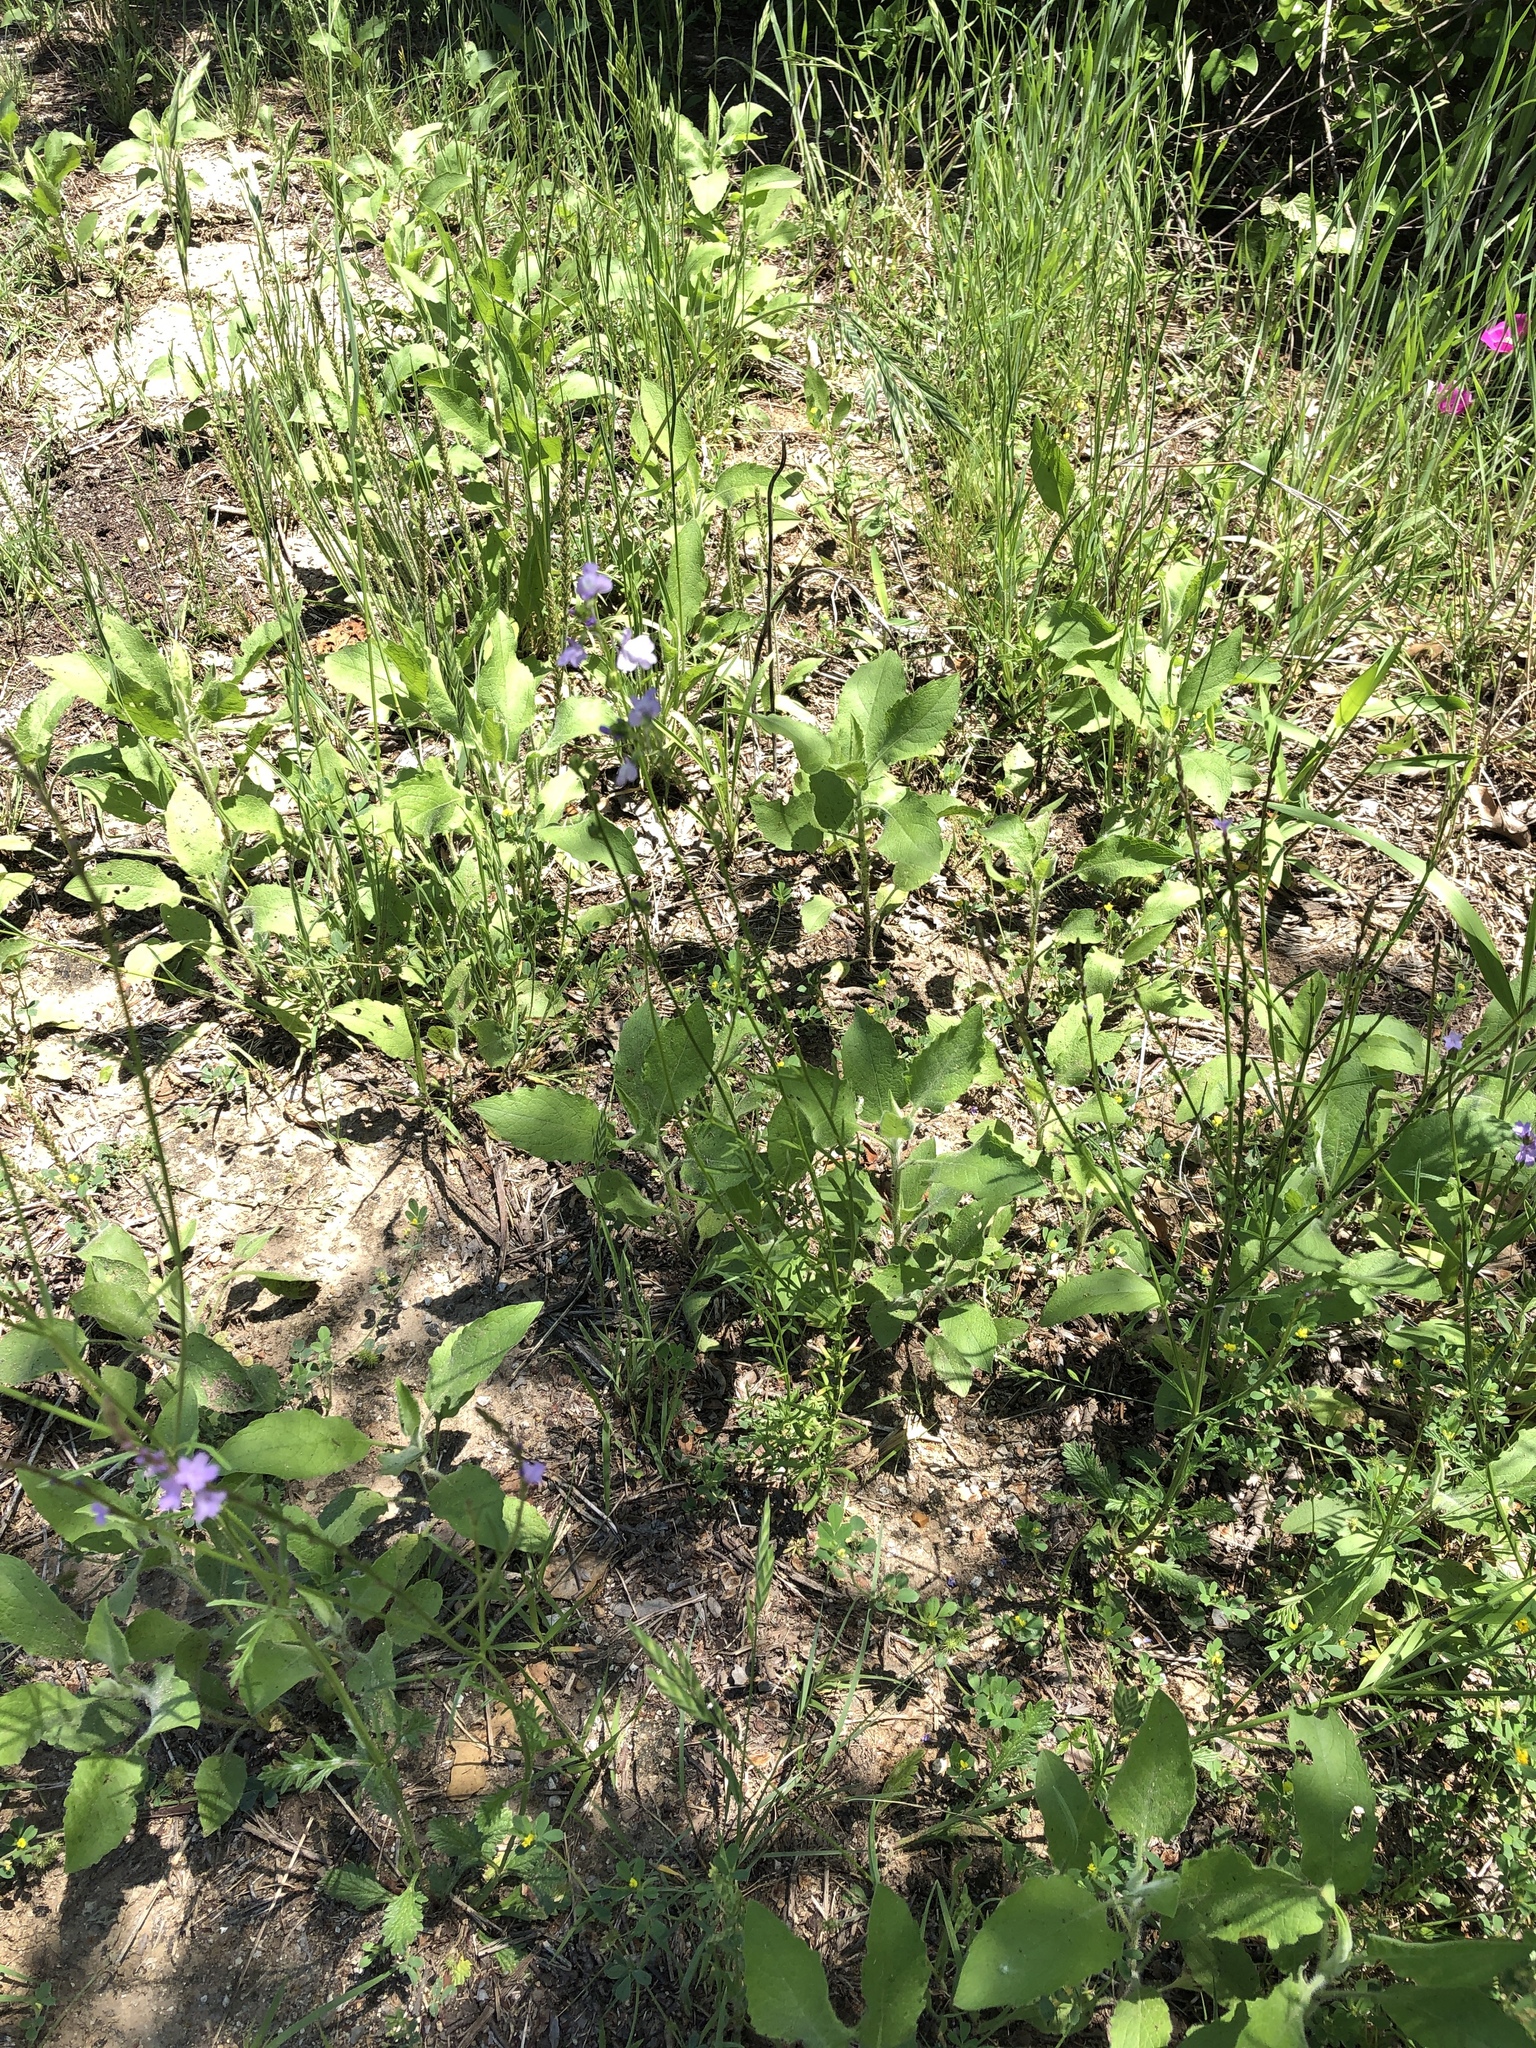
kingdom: Plantae
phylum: Tracheophyta
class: Magnoliopsida
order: Lamiales
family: Plantaginaceae
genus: Nuttallanthus
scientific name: Nuttallanthus texanus
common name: Texas toadflax
